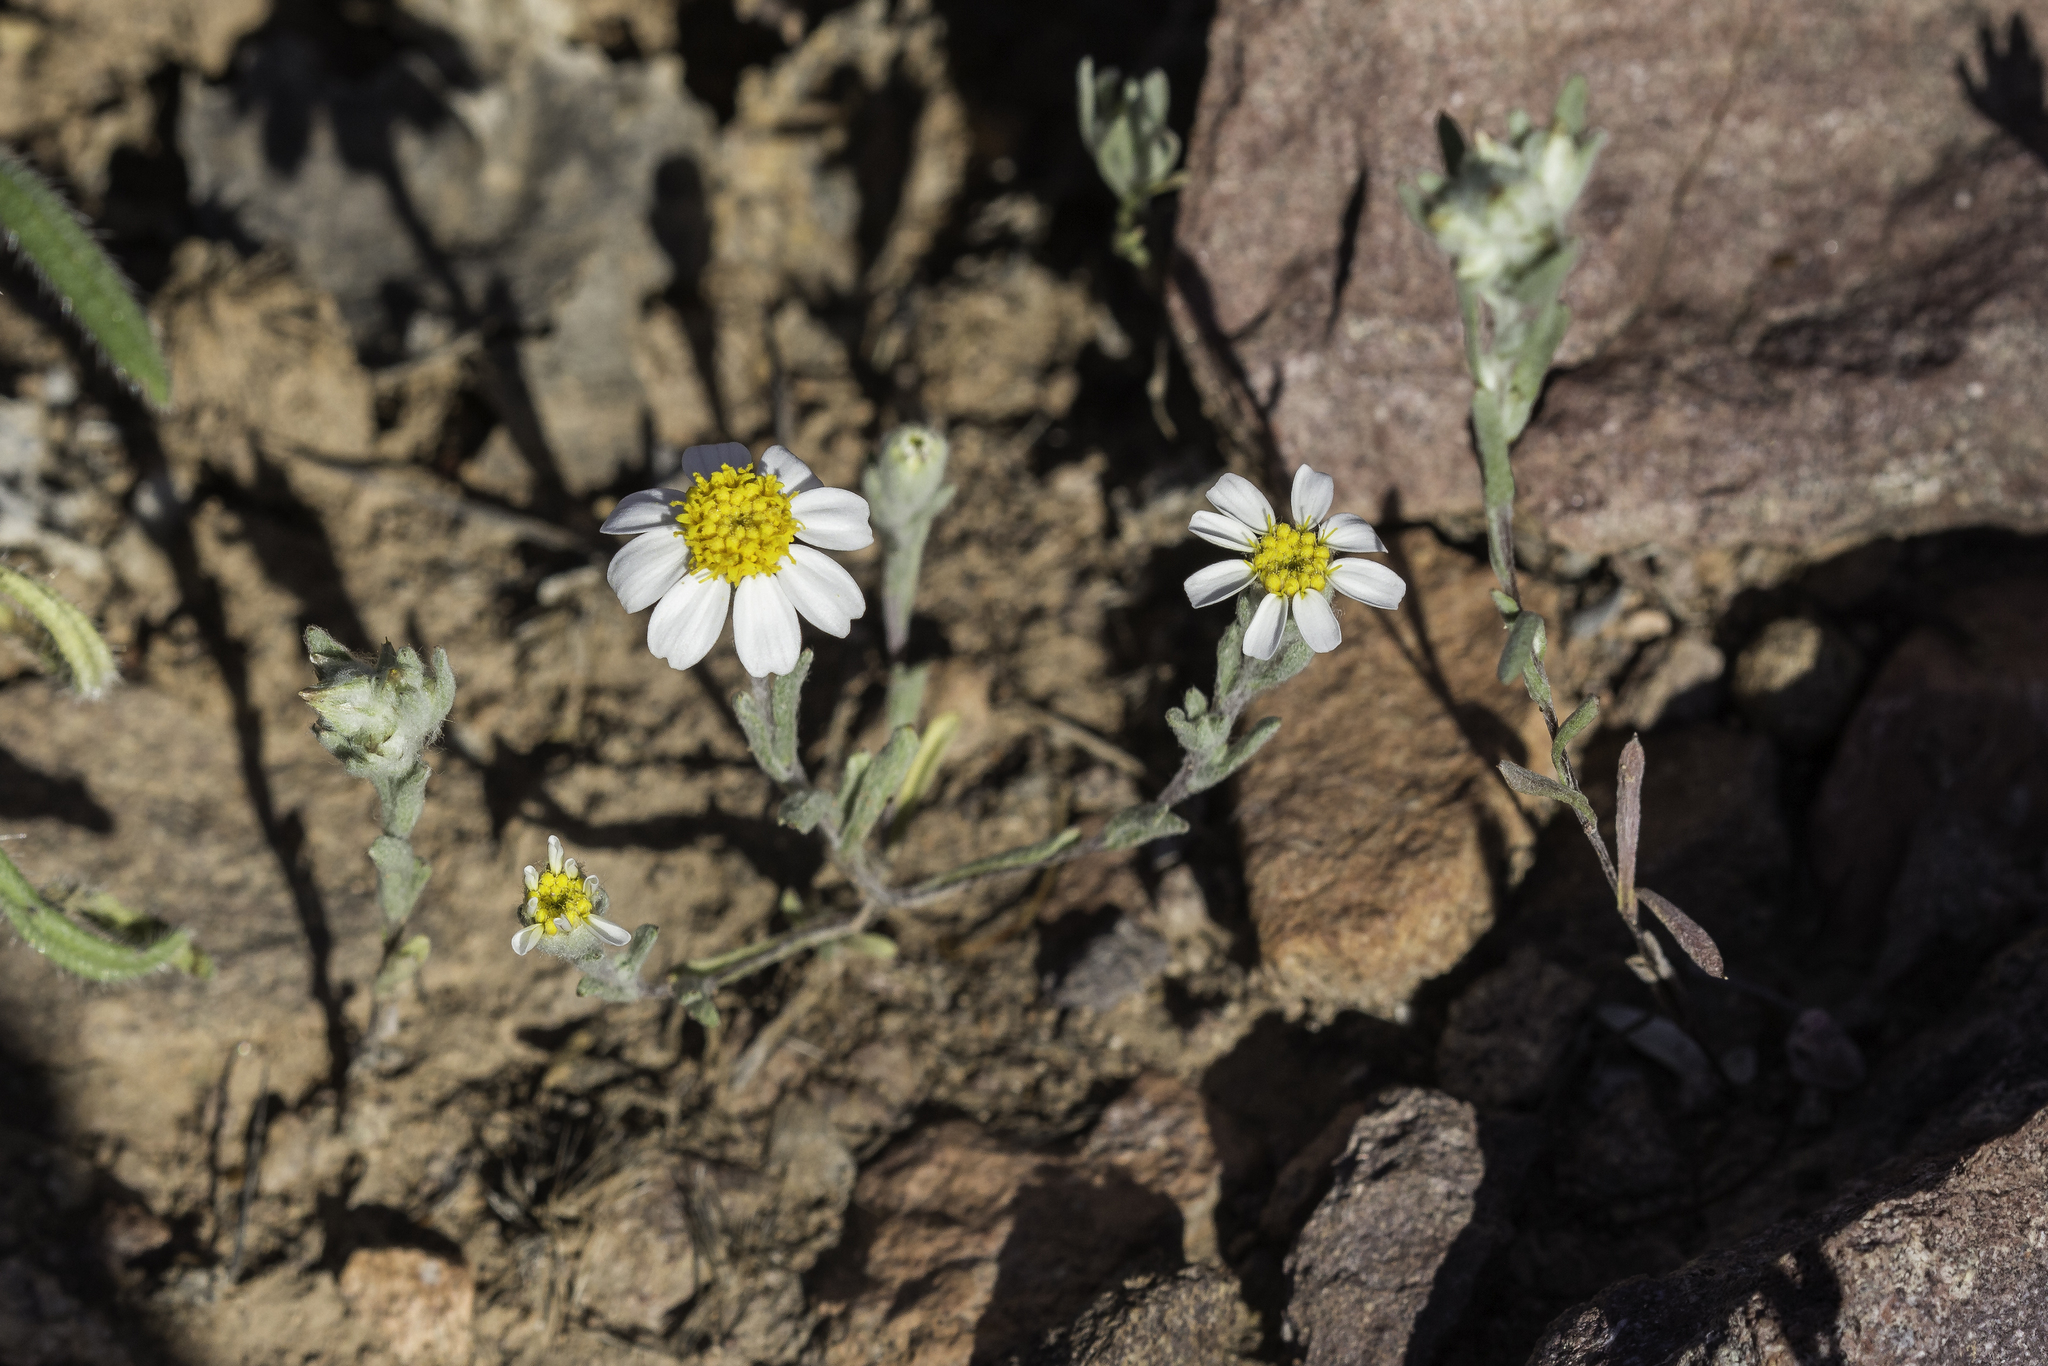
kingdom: Plantae
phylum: Tracheophyta
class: Magnoliopsida
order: Asterales
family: Asteraceae
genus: Eriophyllum
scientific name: Eriophyllum lanosum
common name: White easter-bonnets
